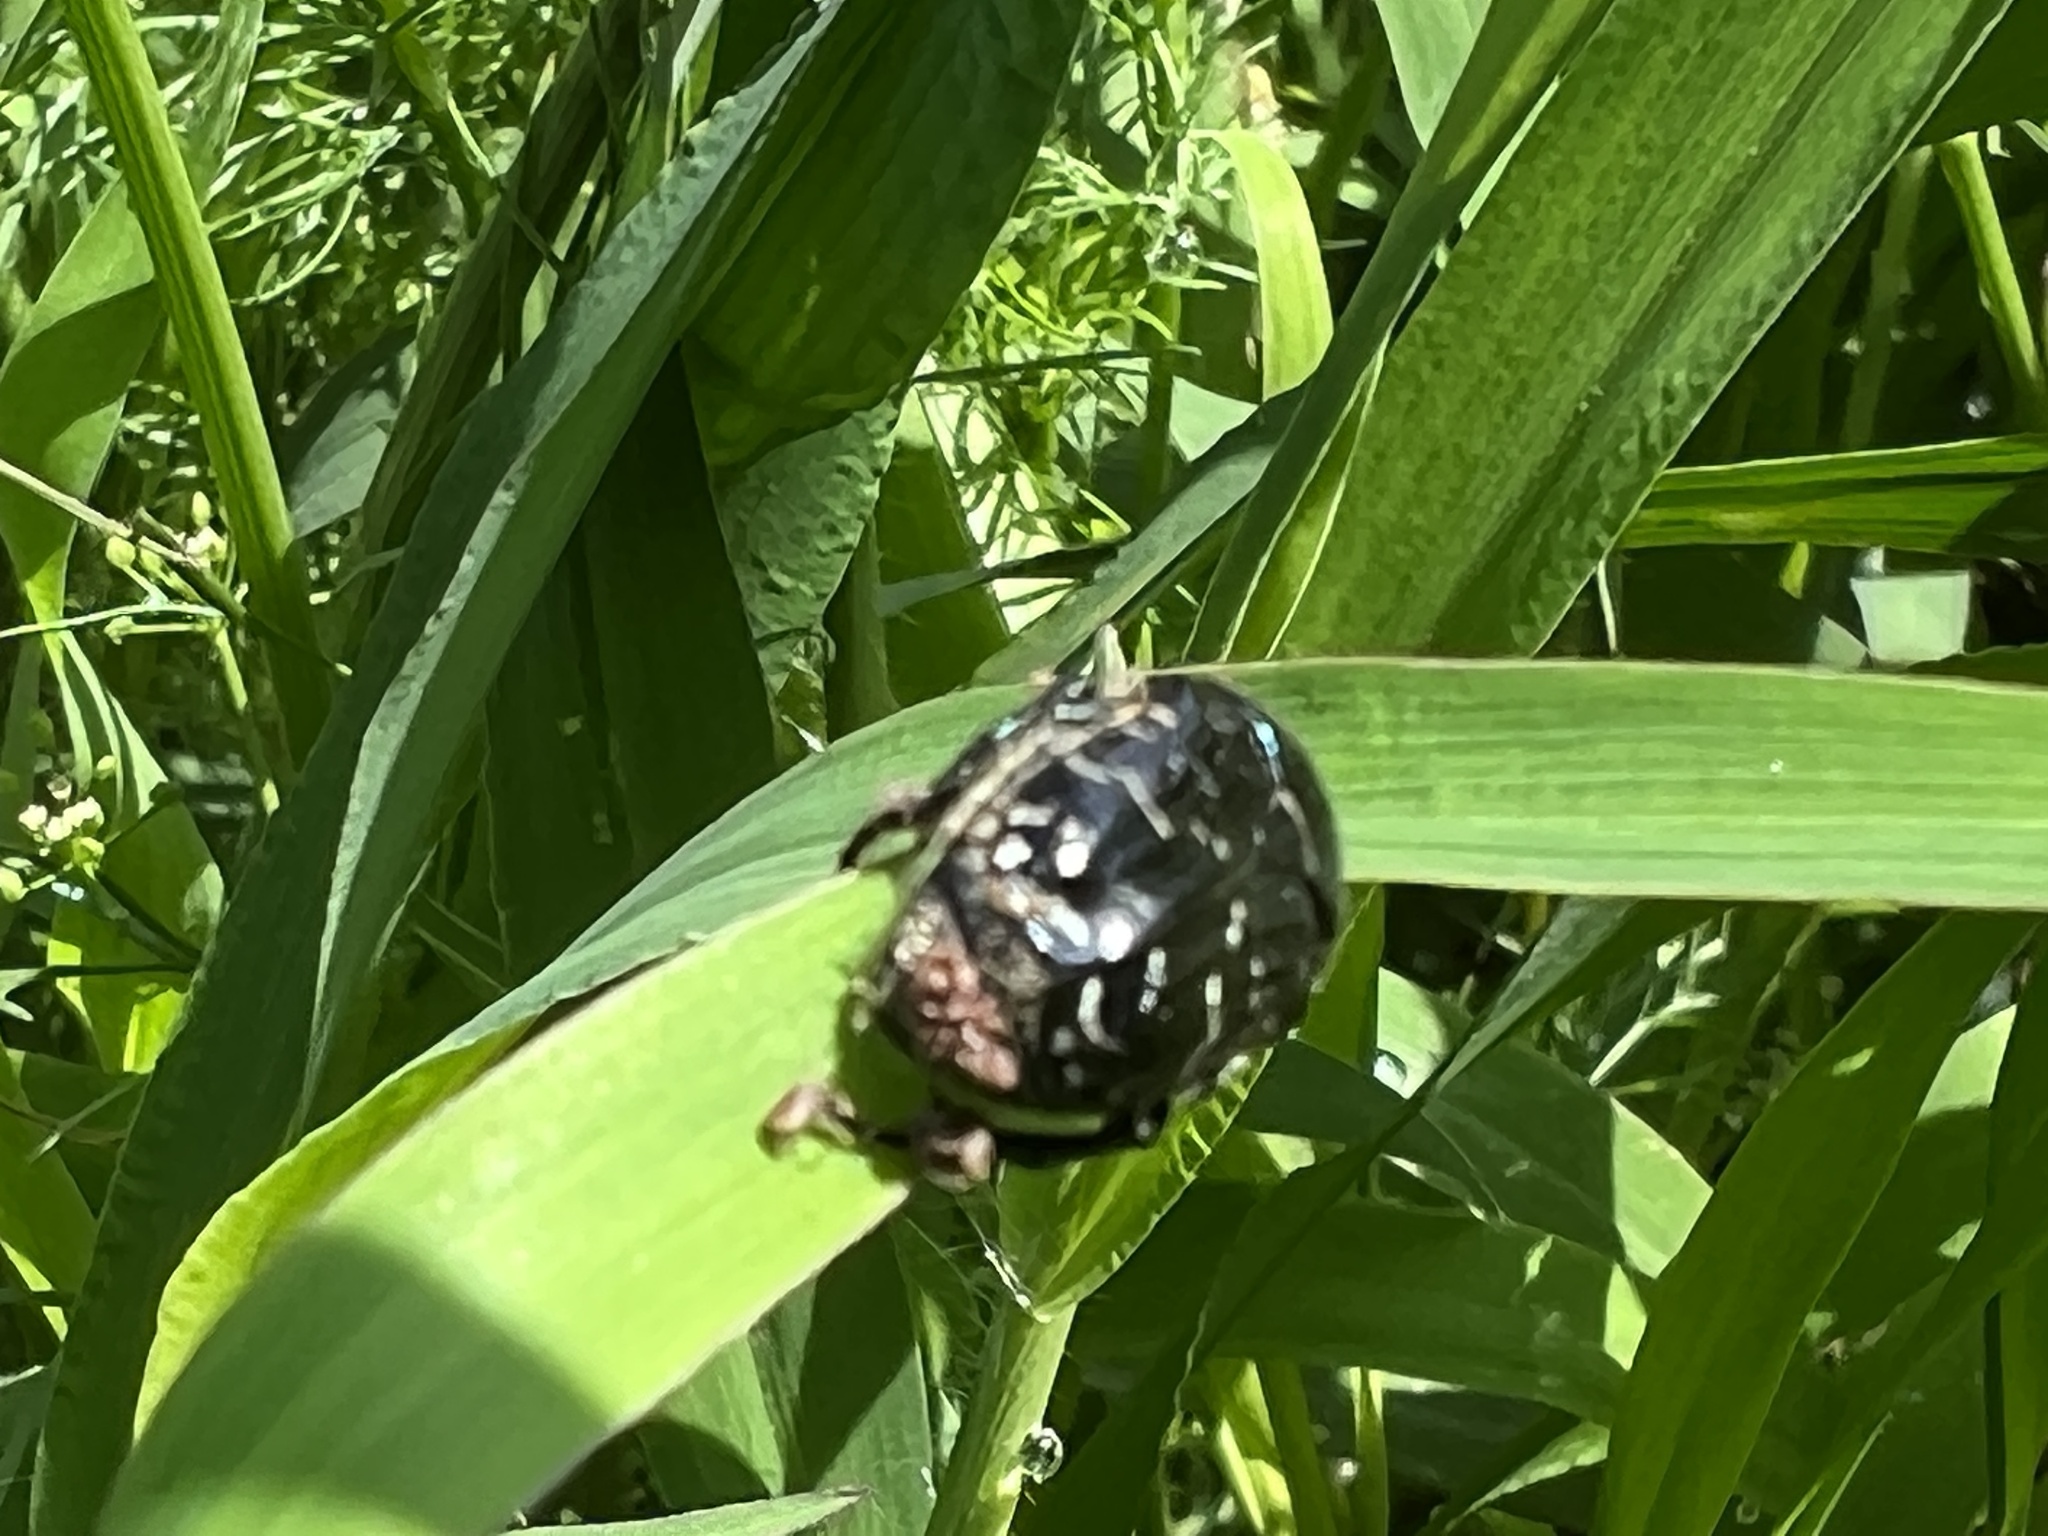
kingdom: Animalia
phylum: Arthropoda
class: Insecta
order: Coleoptera
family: Scarabaeidae
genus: Euphoria
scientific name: Euphoria sepulcralis
